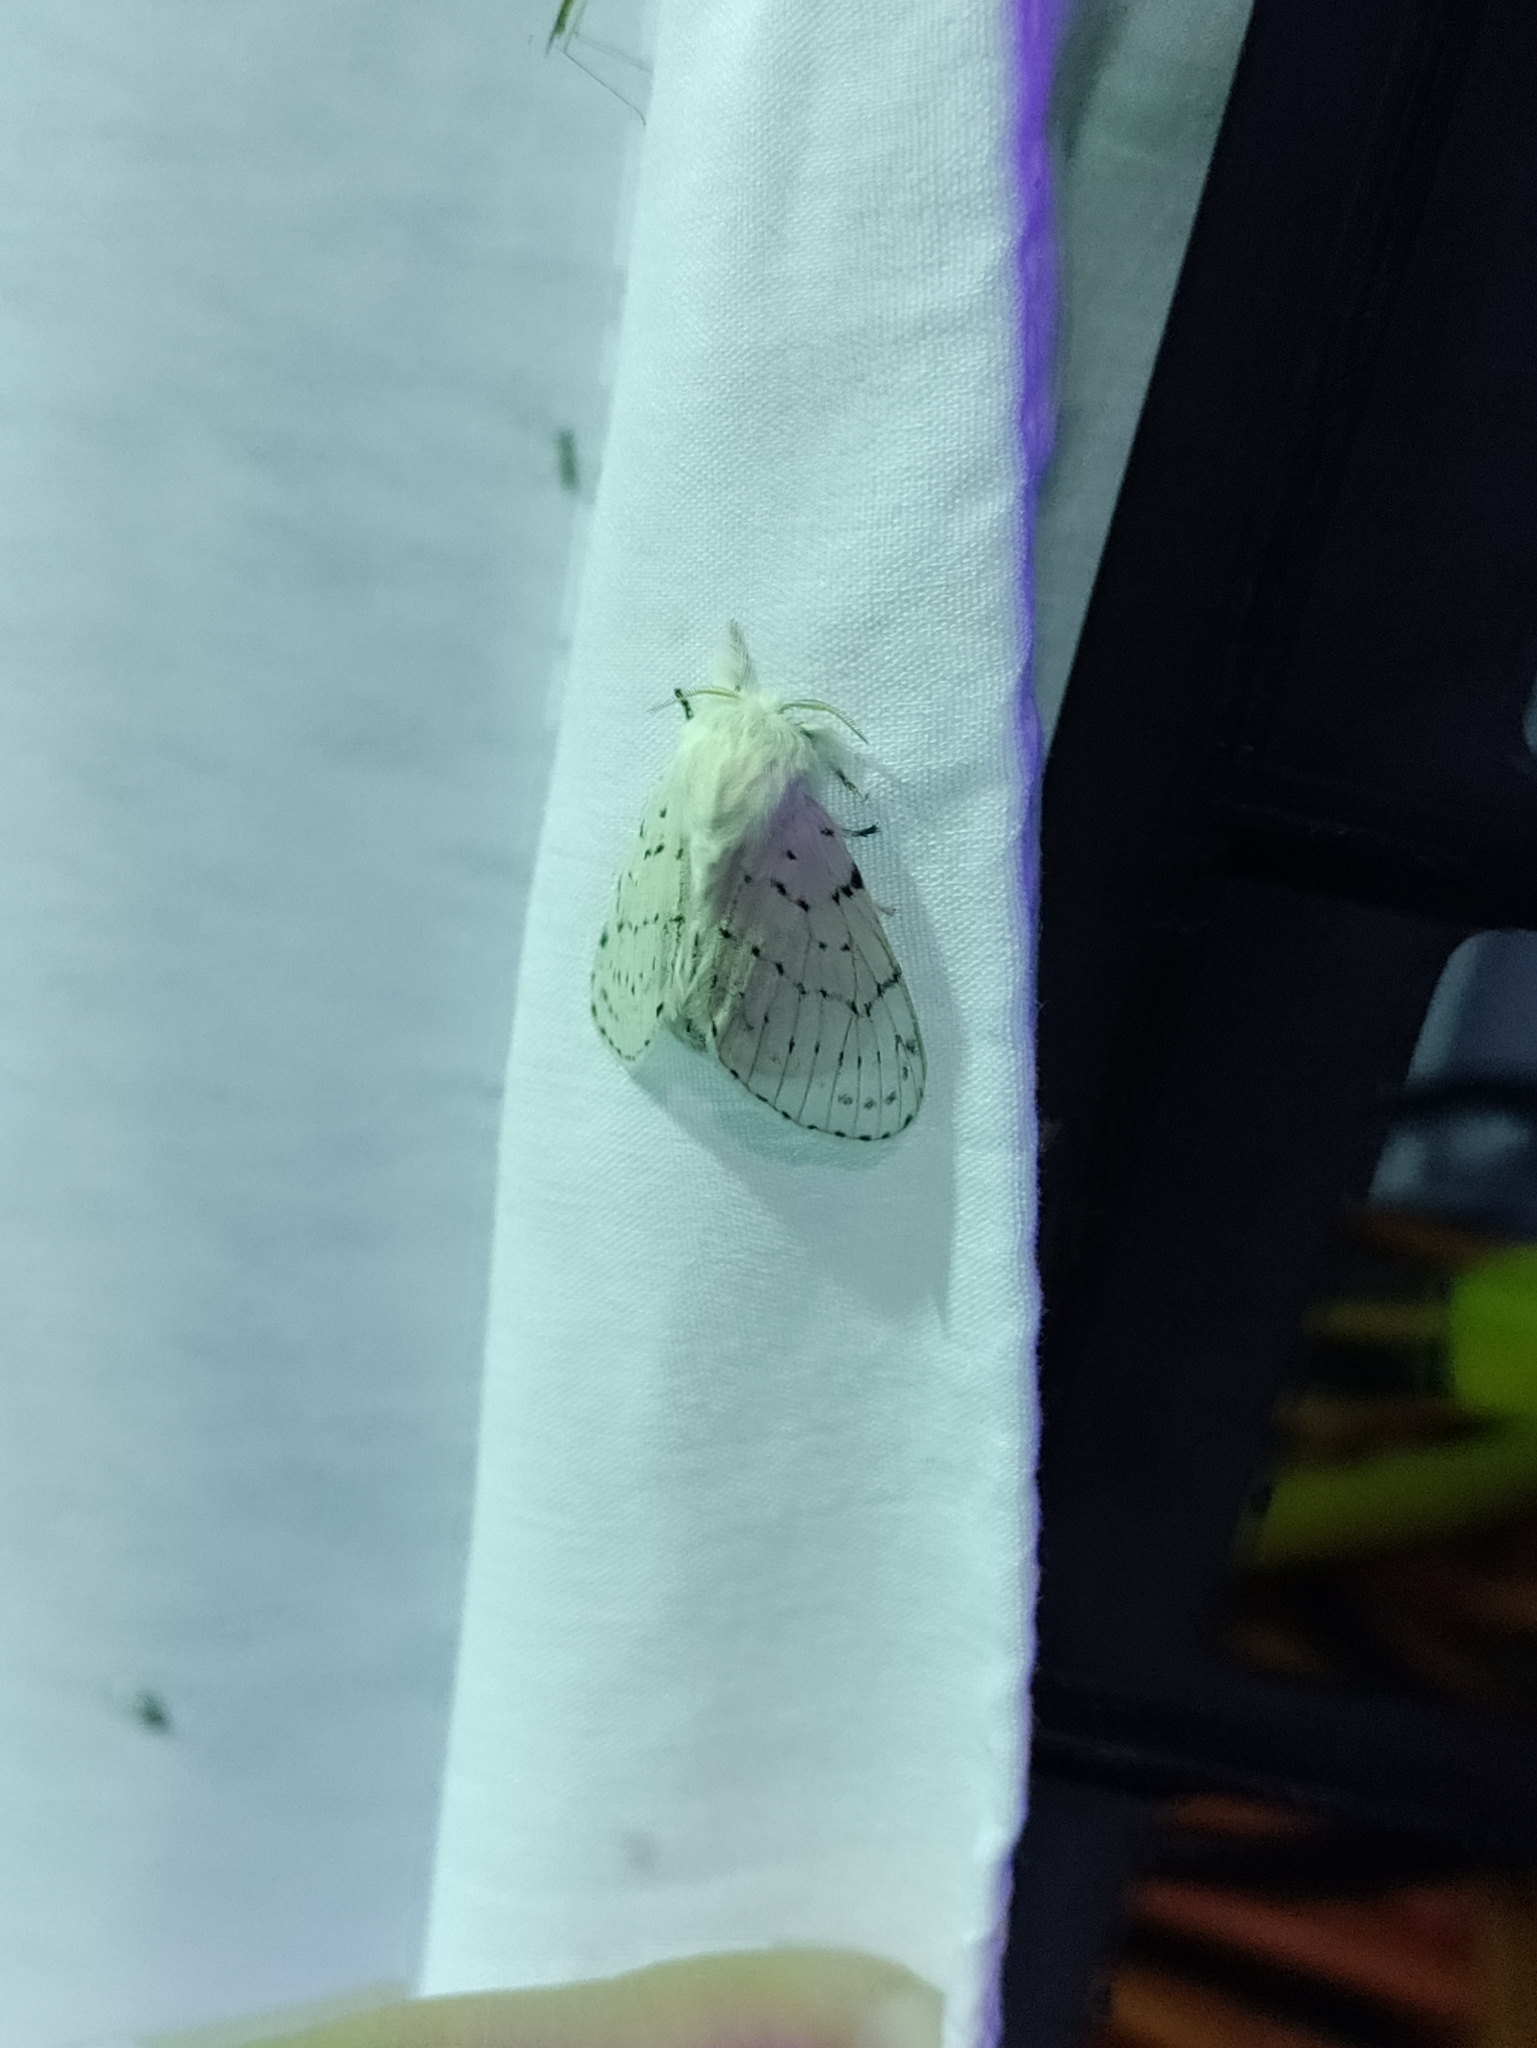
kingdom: Animalia
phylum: Arthropoda
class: Insecta
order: Lepidoptera
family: Lasiocampidae
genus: Artace
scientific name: Artace cribrarius
